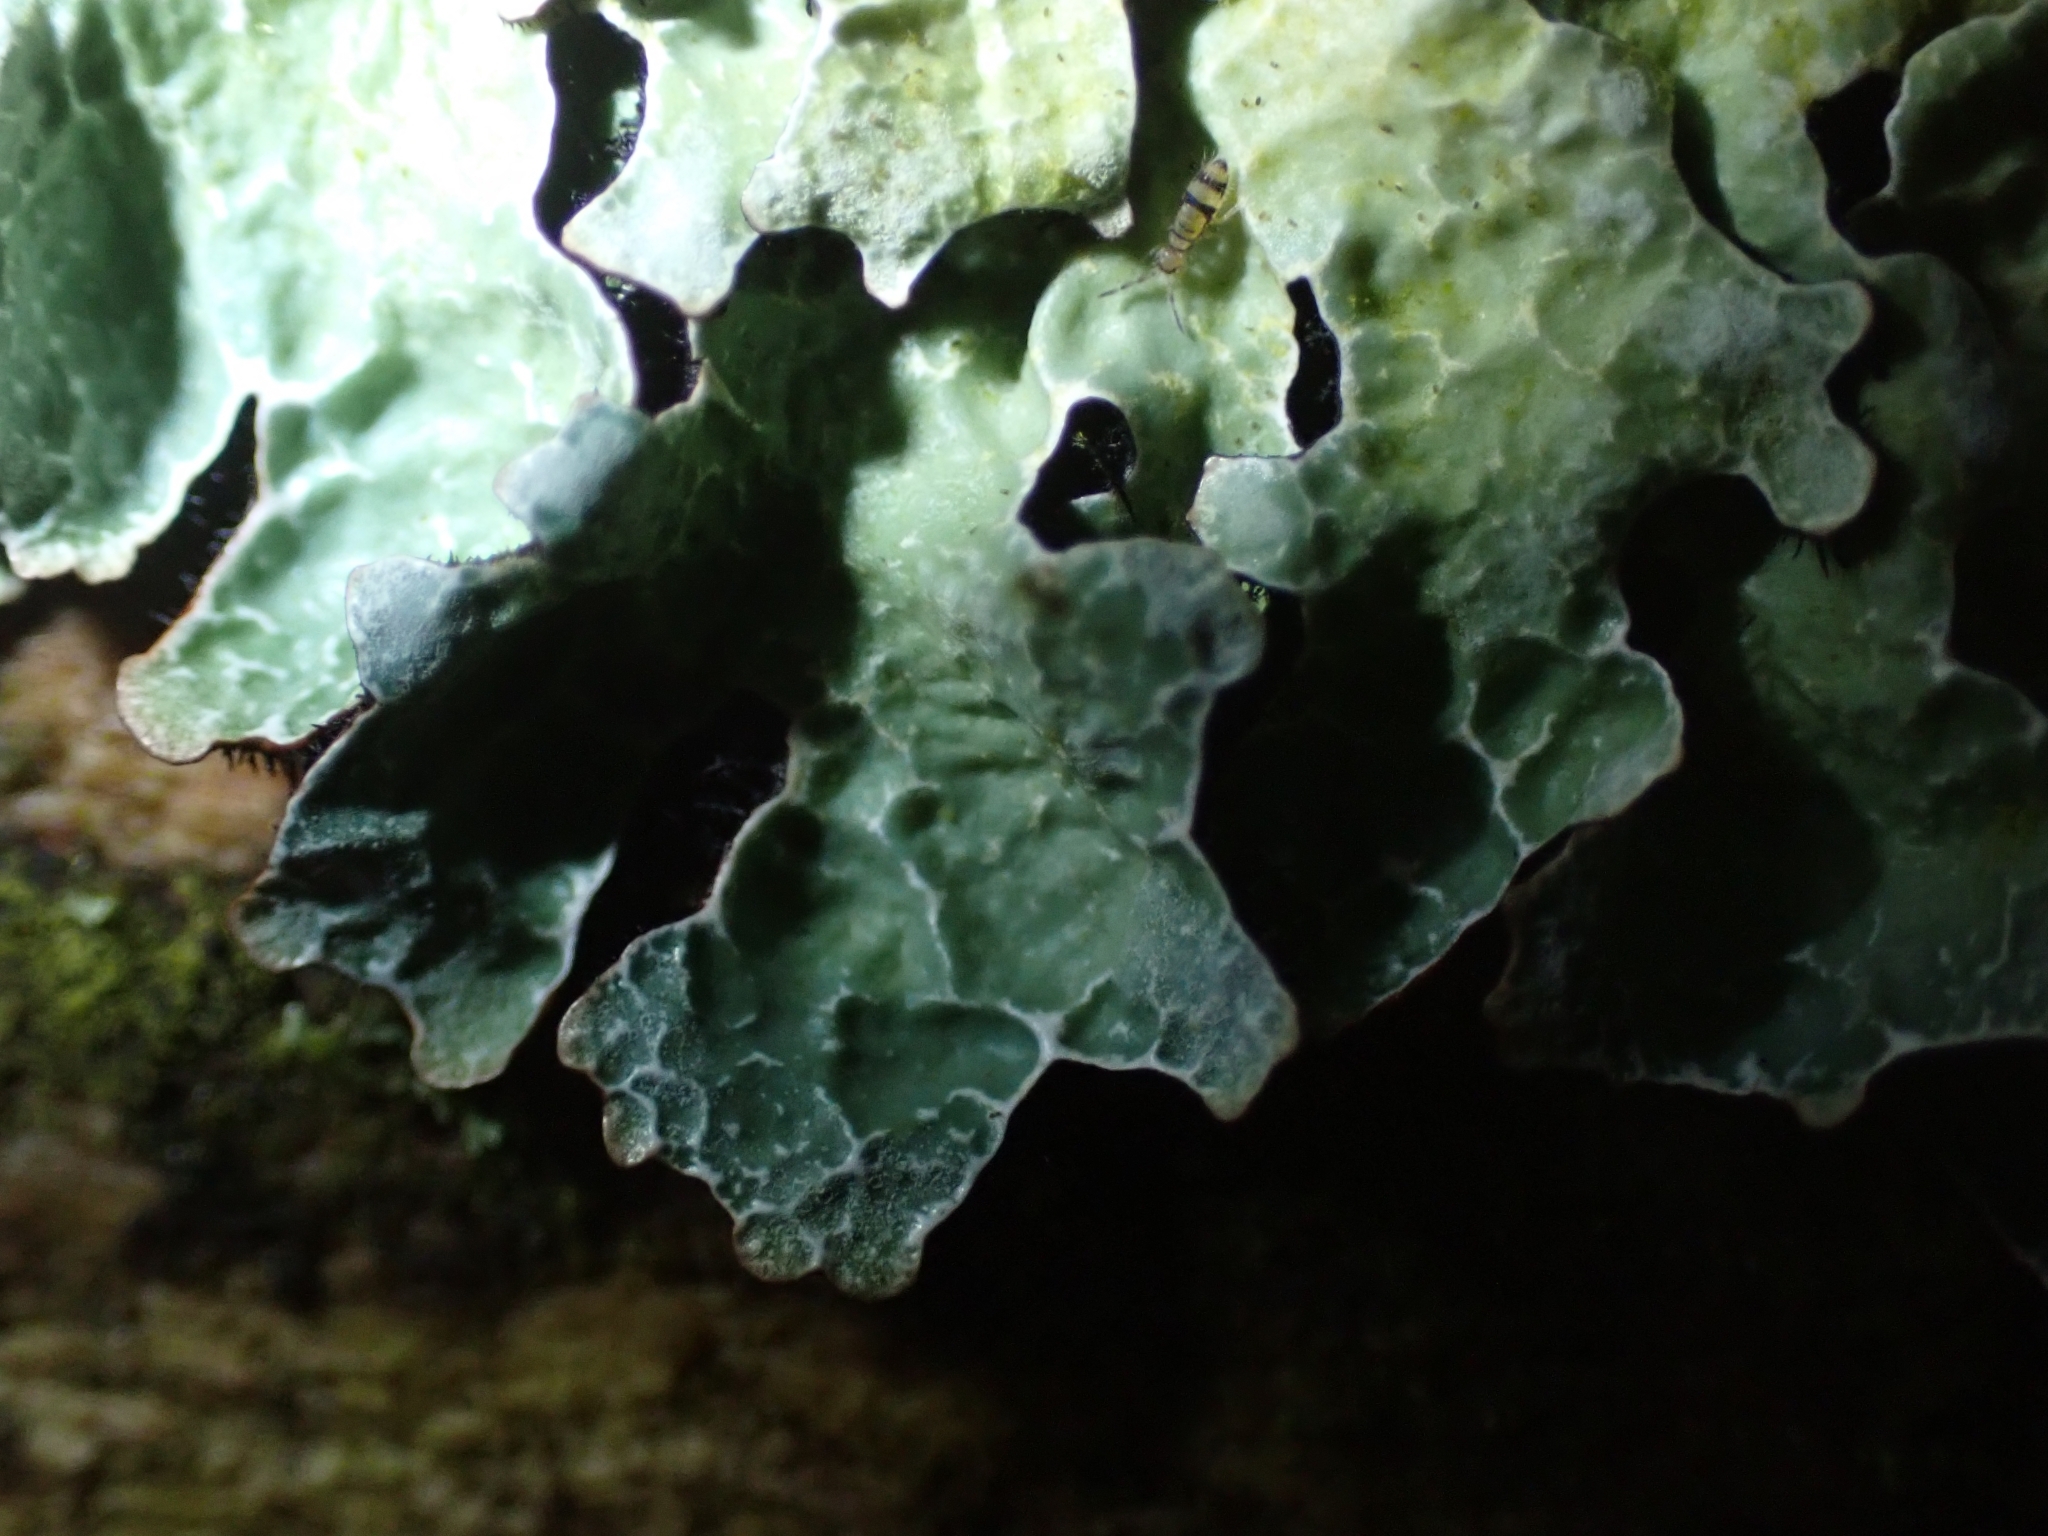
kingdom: Fungi
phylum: Ascomycota
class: Lecanoromycetes
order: Lecanorales
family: Parmeliaceae
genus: Parmelia
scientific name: Parmelia sulcata
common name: Netted shield lichen
